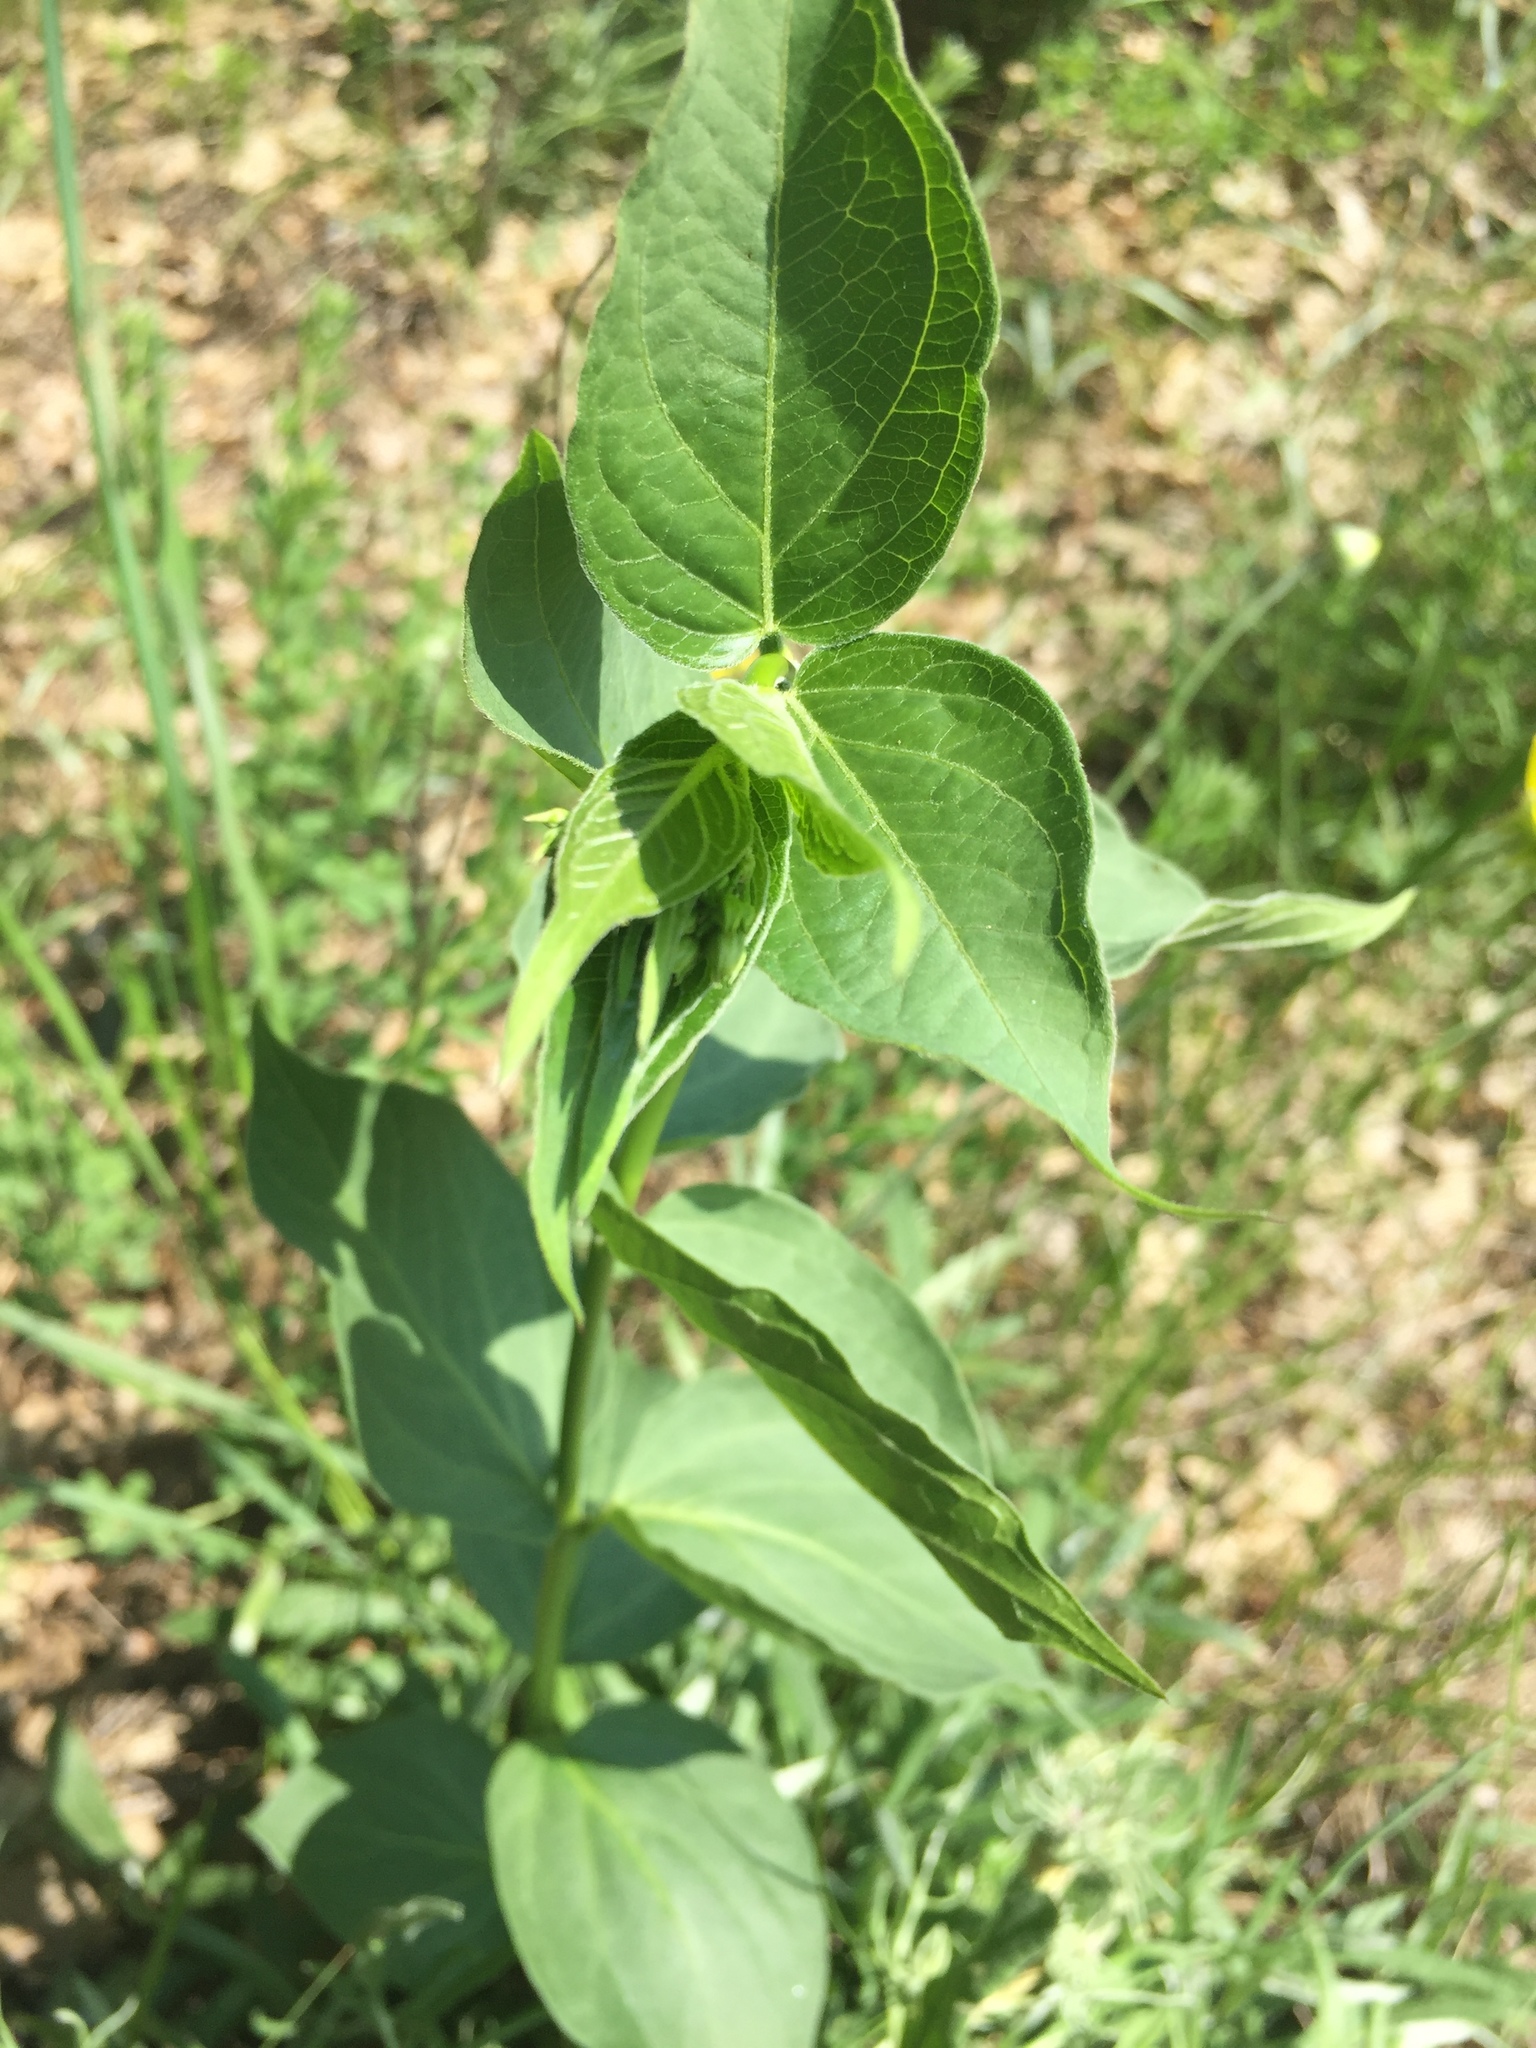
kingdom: Plantae
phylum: Tracheophyta
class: Magnoliopsida
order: Gentianales
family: Apocynaceae
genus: Vincetoxicum
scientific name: Vincetoxicum hirundinaria
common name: White swallowwort
